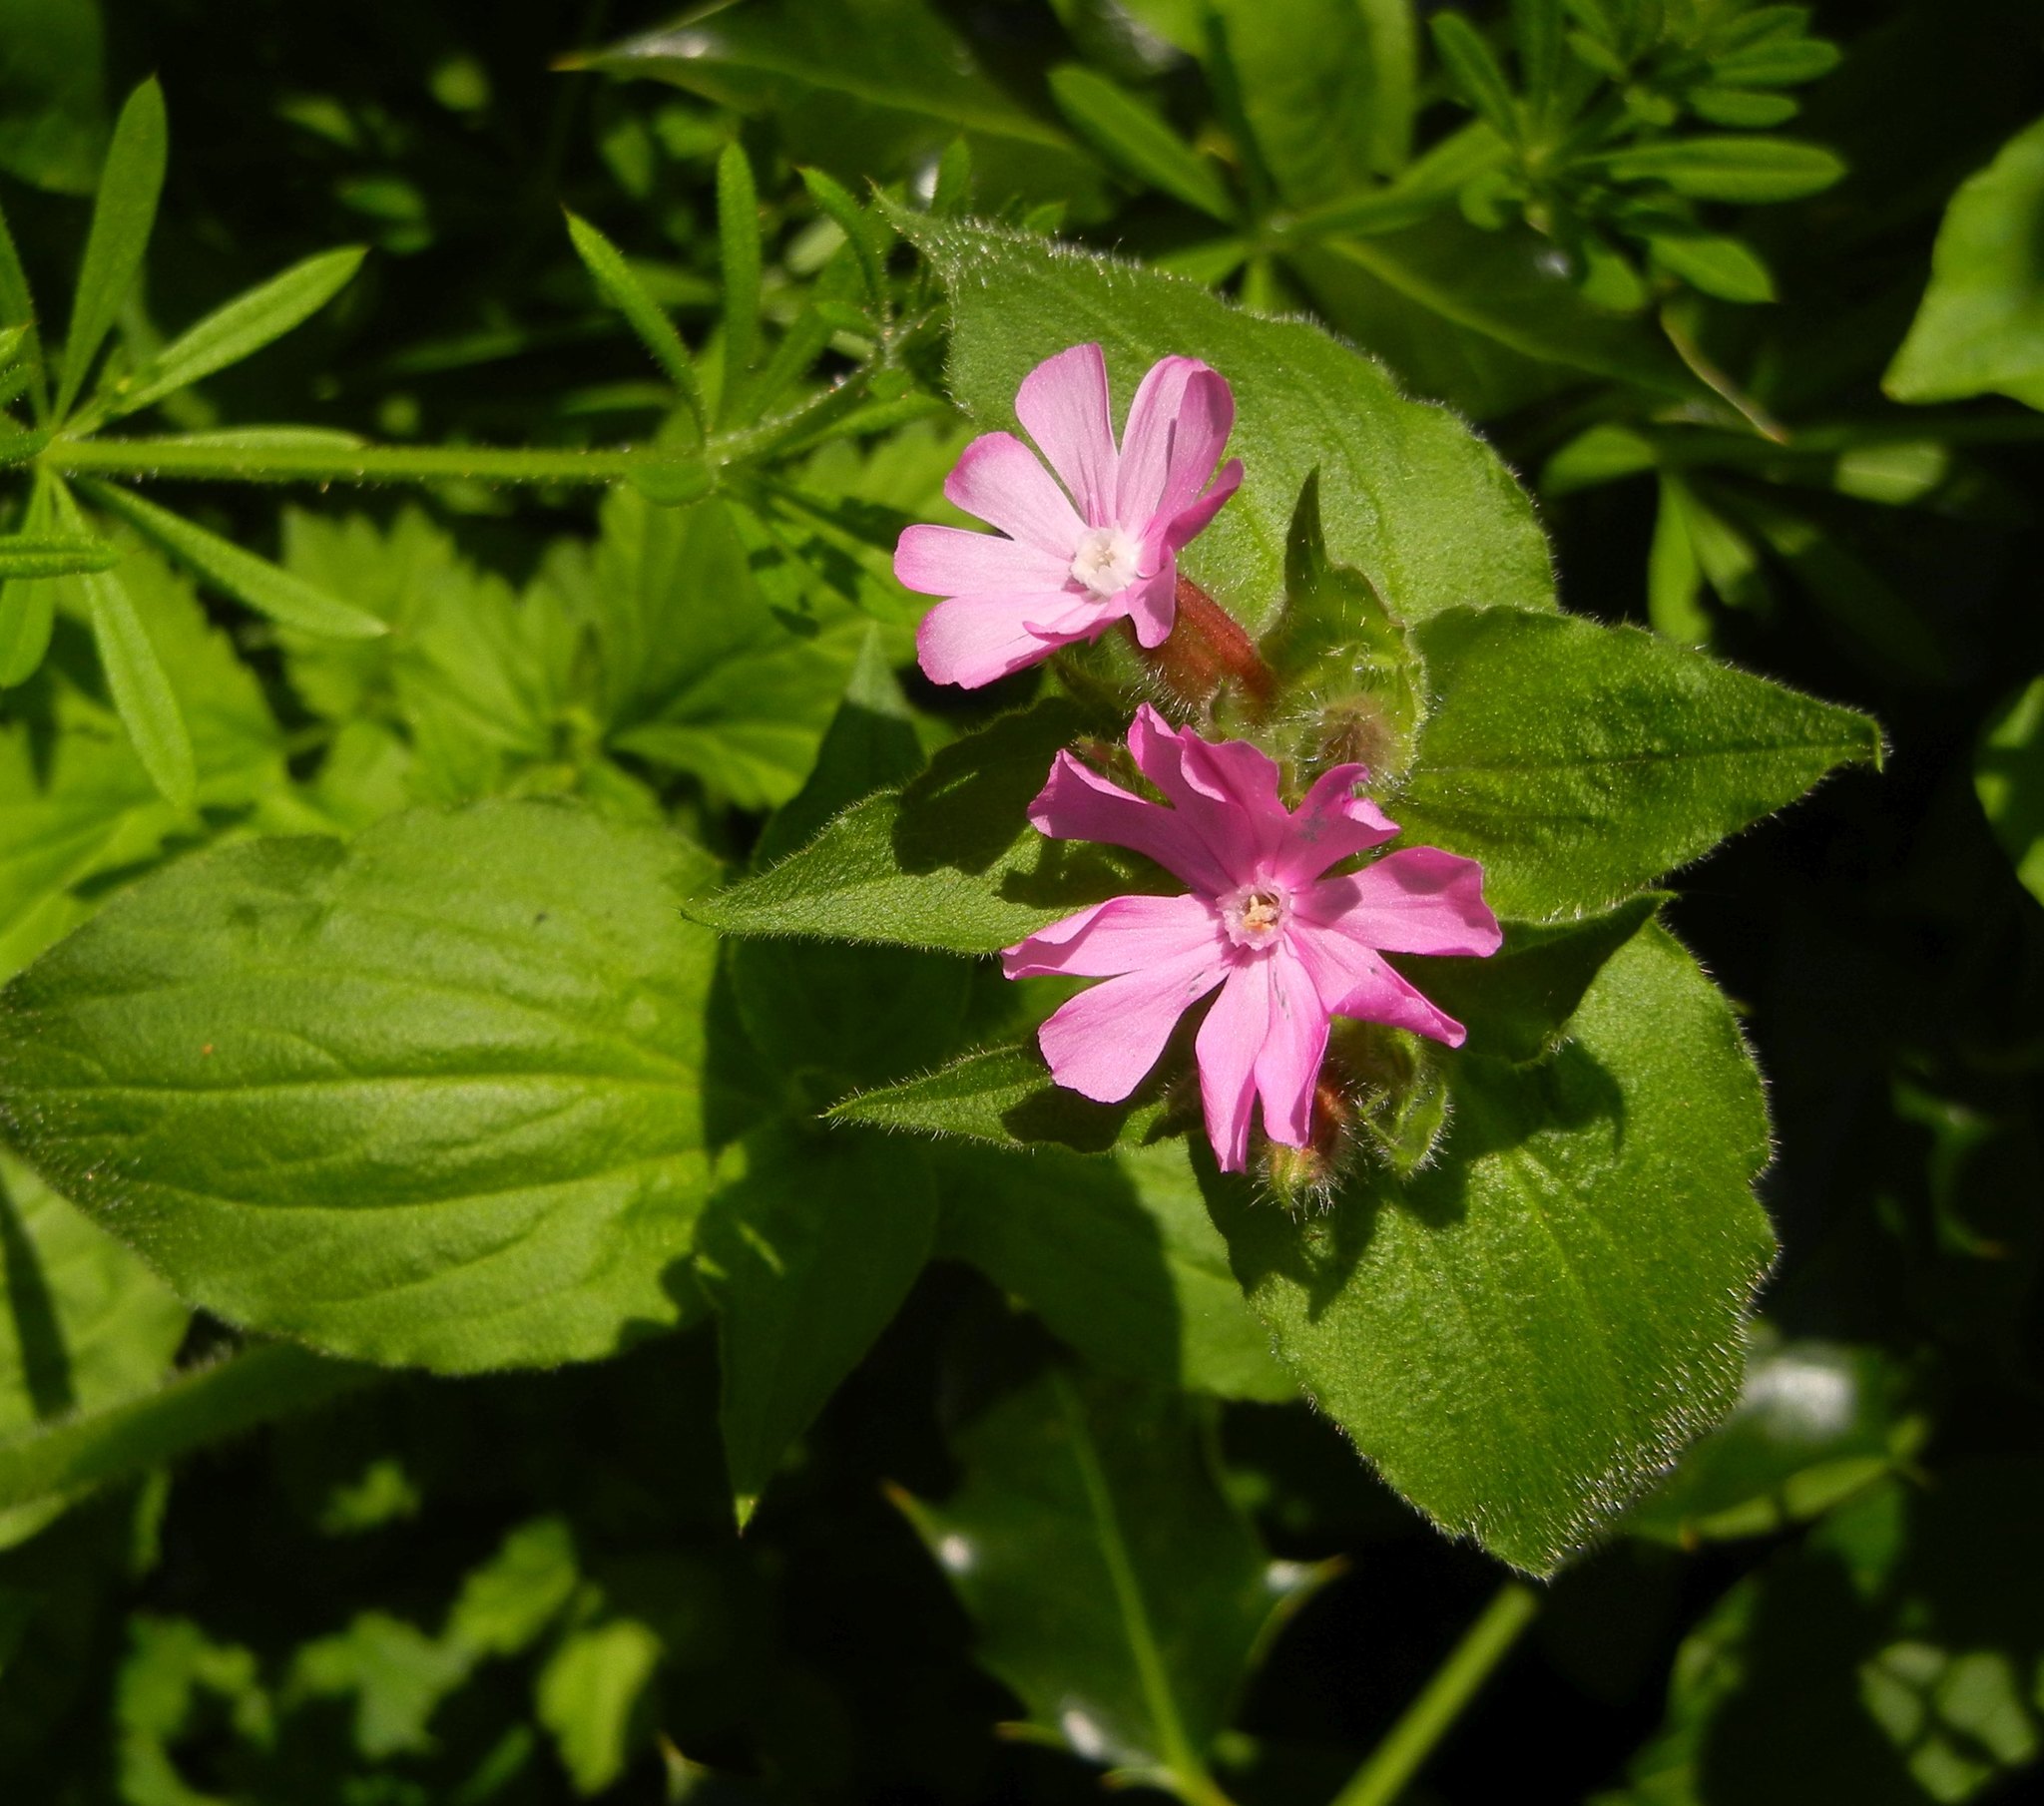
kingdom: Plantae
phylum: Tracheophyta
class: Magnoliopsida
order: Caryophyllales
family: Caryophyllaceae
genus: Silene
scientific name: Silene dioica
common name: Red campion
